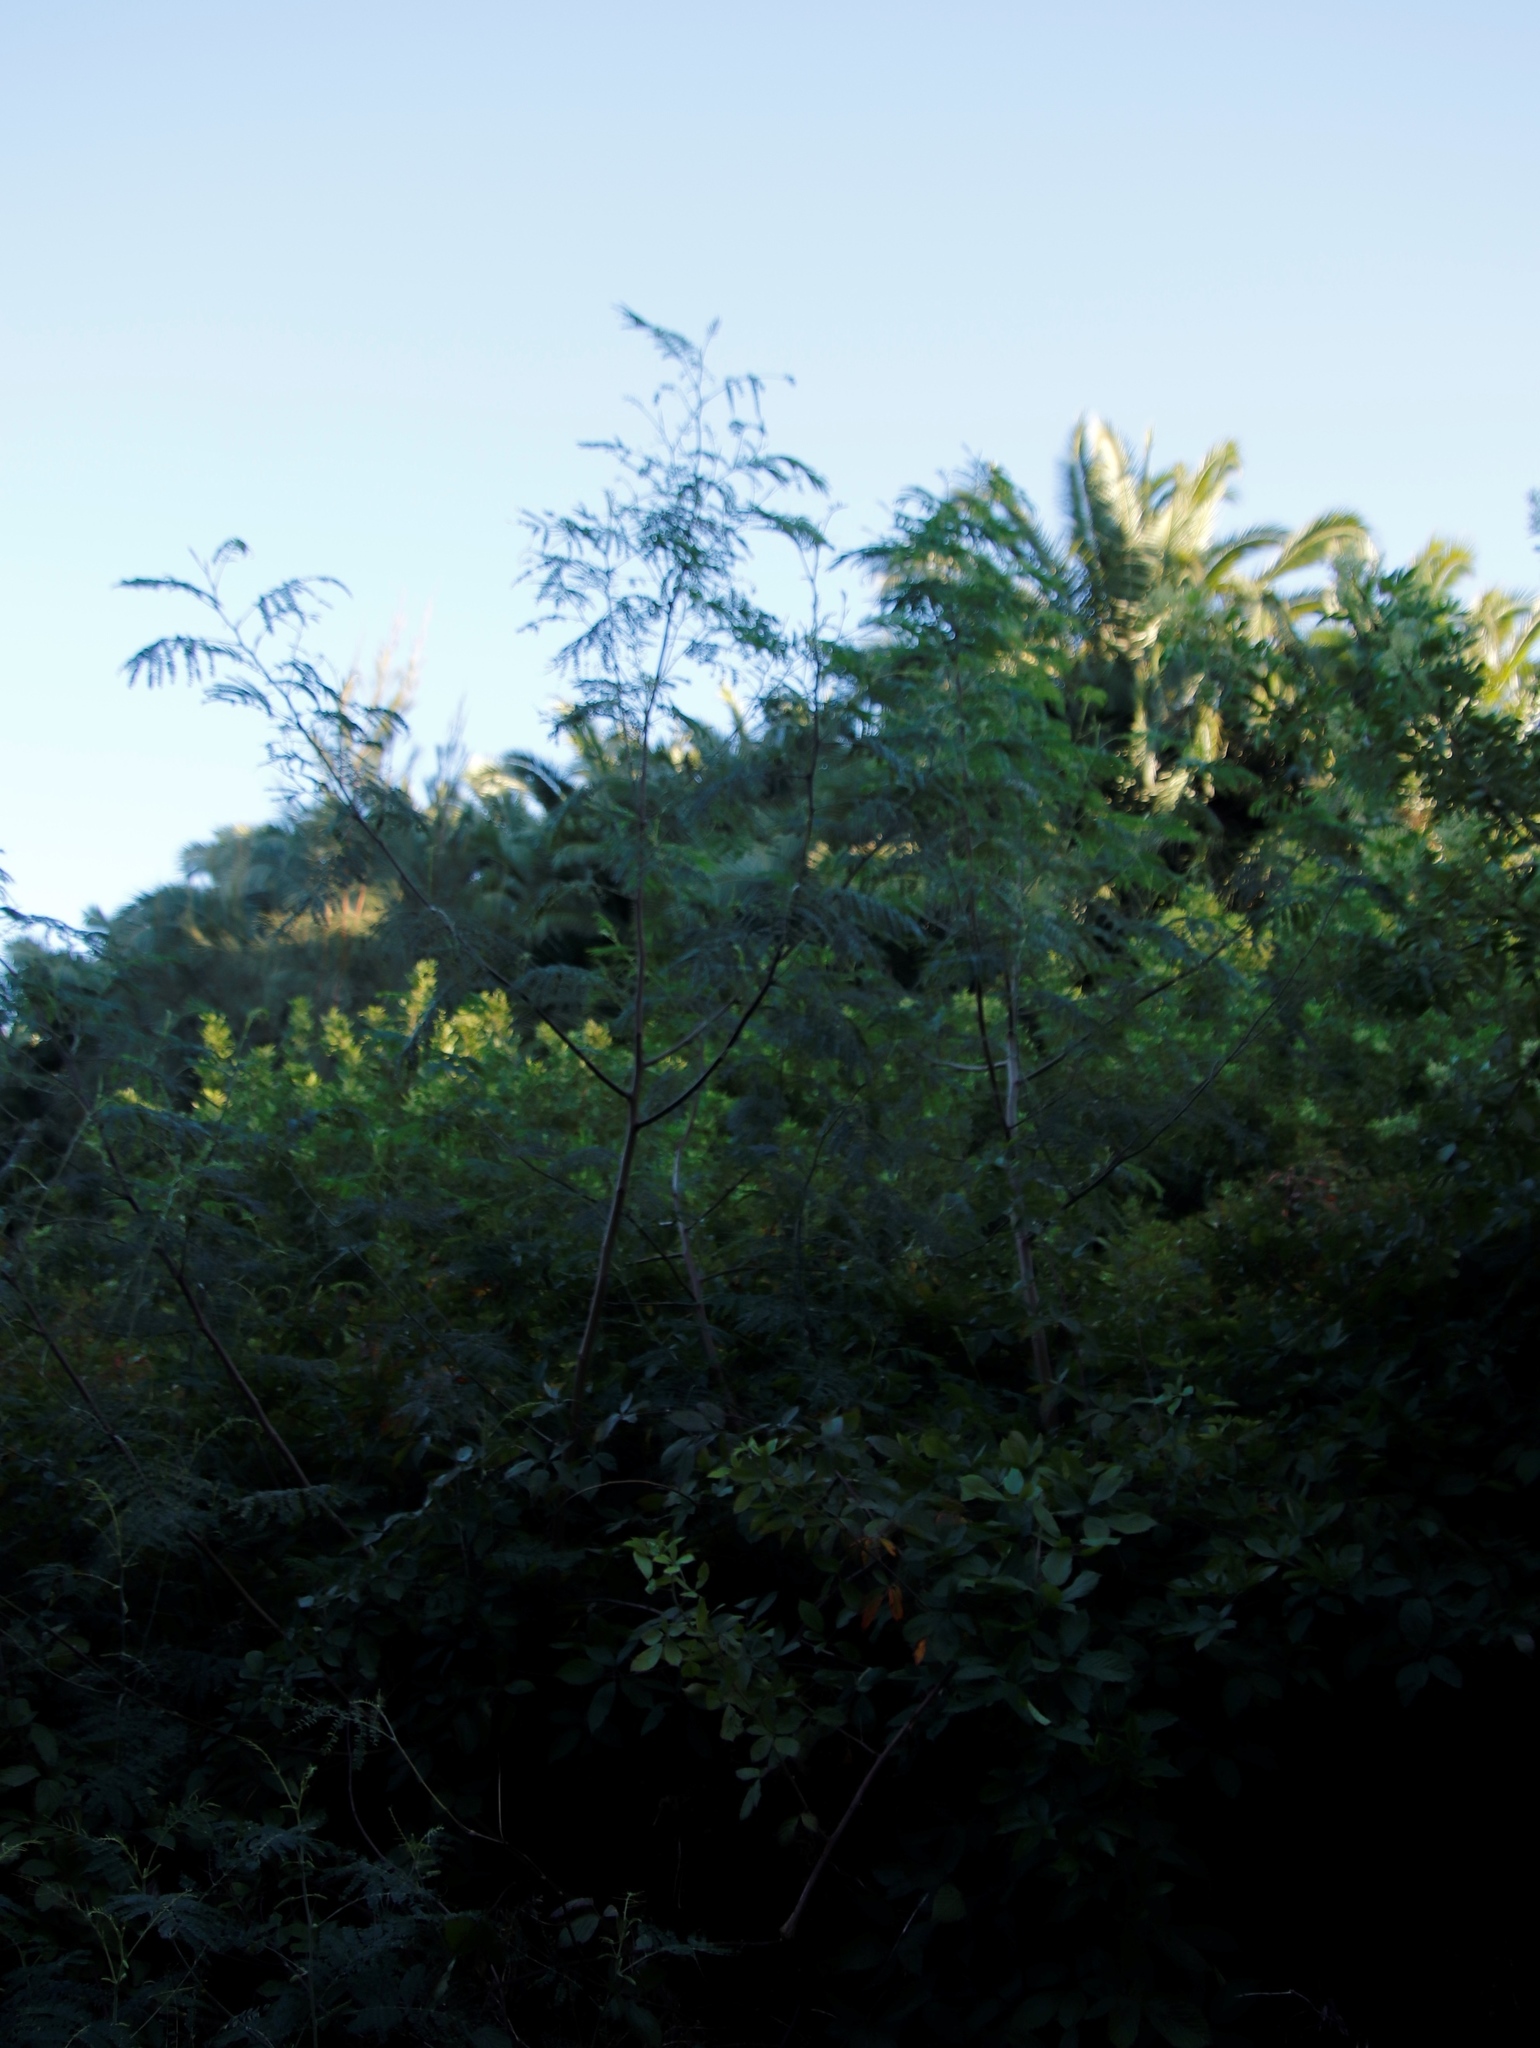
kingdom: Plantae
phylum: Tracheophyta
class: Magnoliopsida
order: Fabales
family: Fabaceae
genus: Paraserianthes
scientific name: Paraserianthes lophantha
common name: Plume albizia
